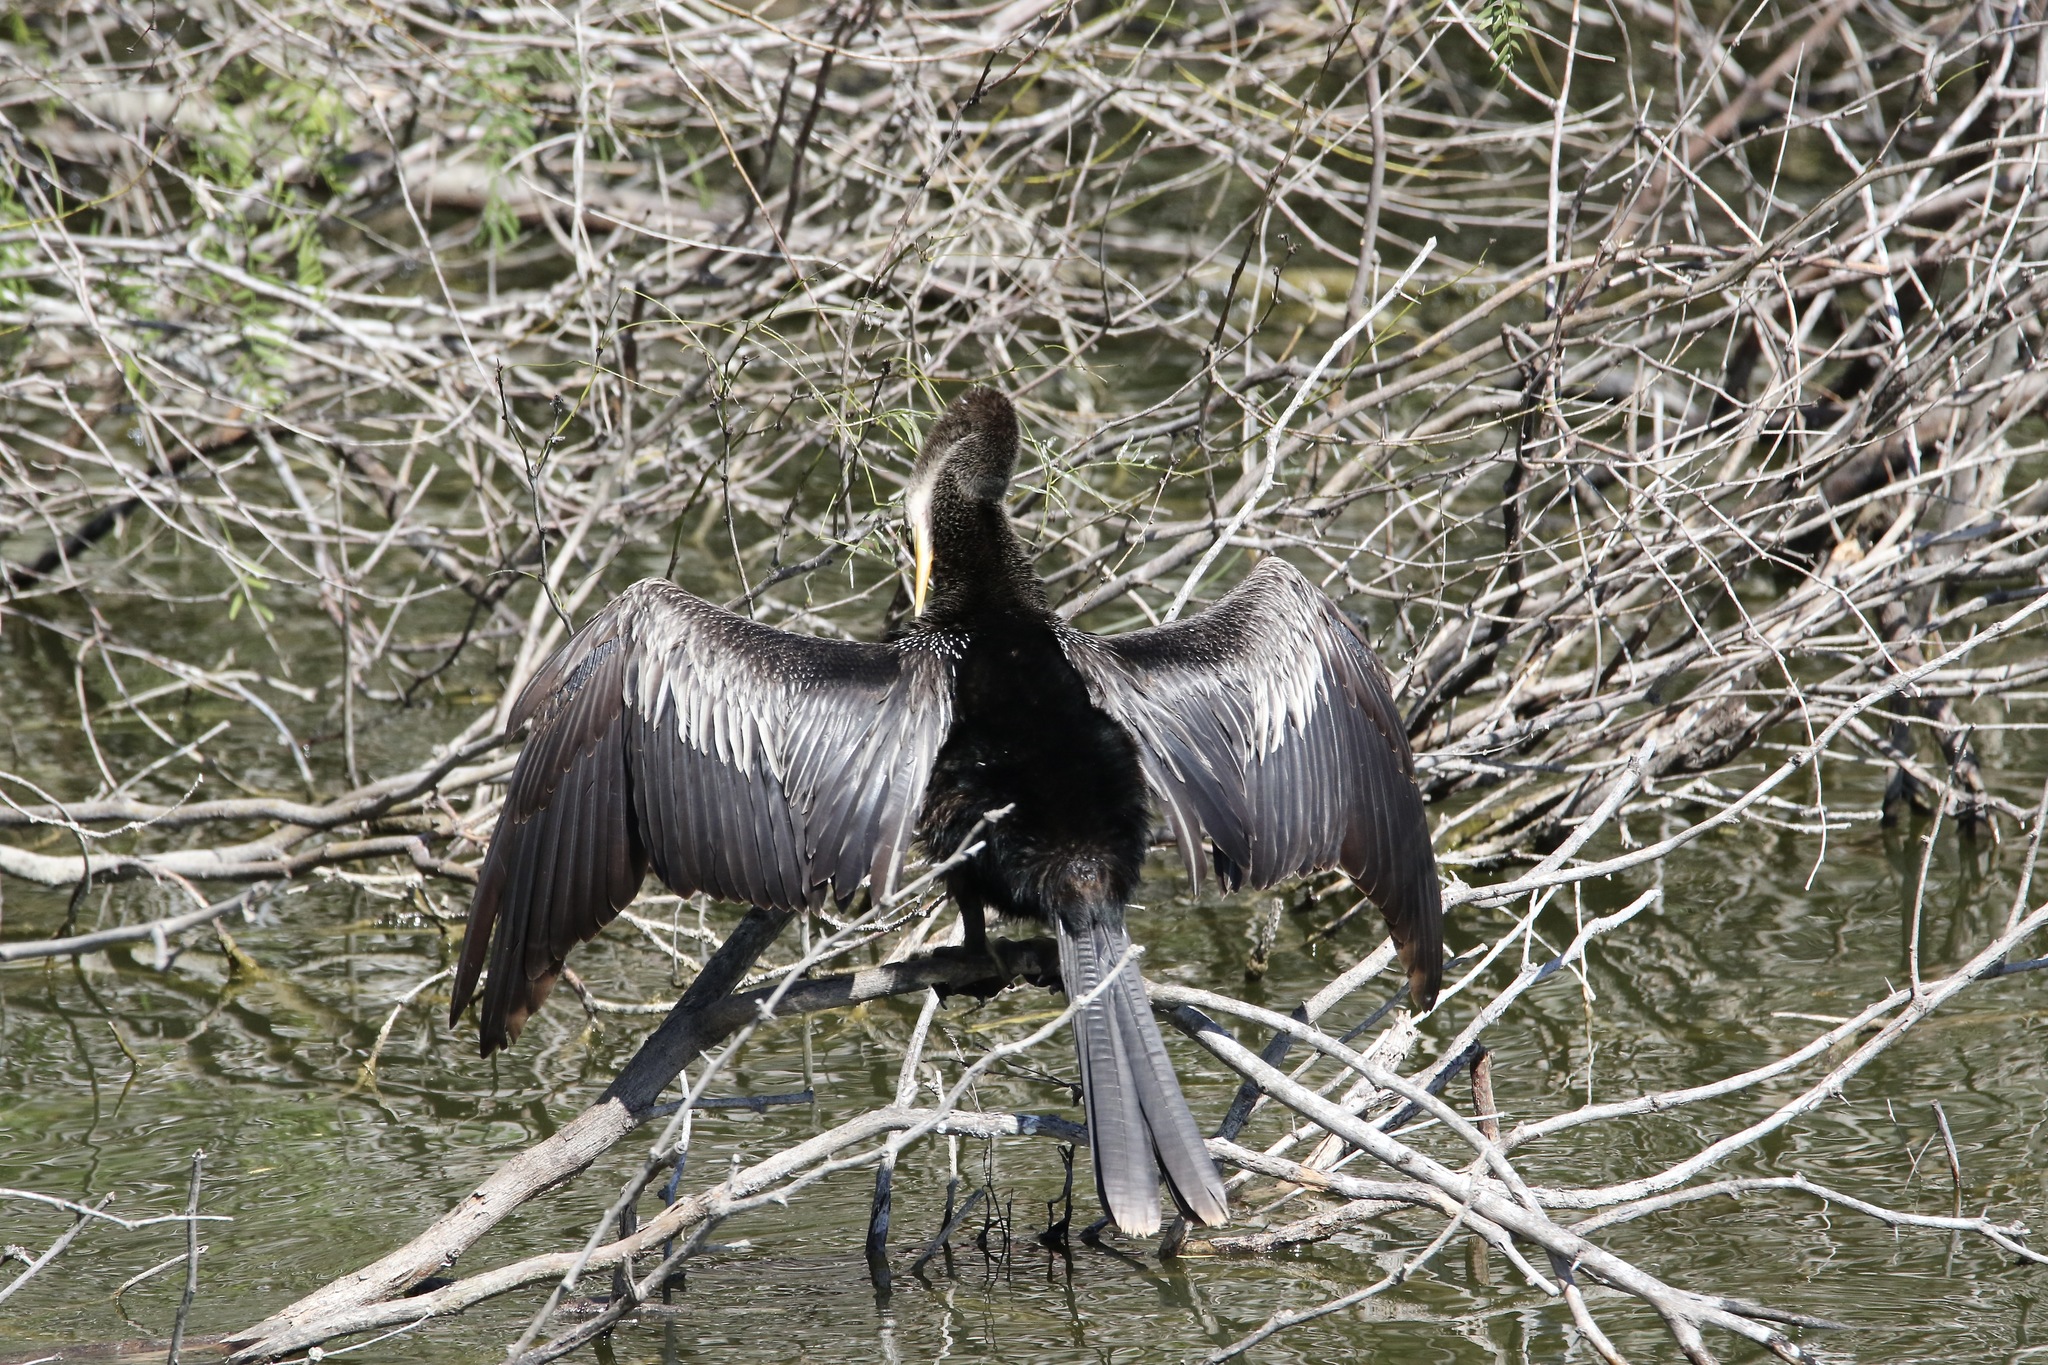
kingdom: Animalia
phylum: Chordata
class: Aves
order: Suliformes
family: Anhingidae
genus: Anhinga
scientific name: Anhinga anhinga
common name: Anhinga
